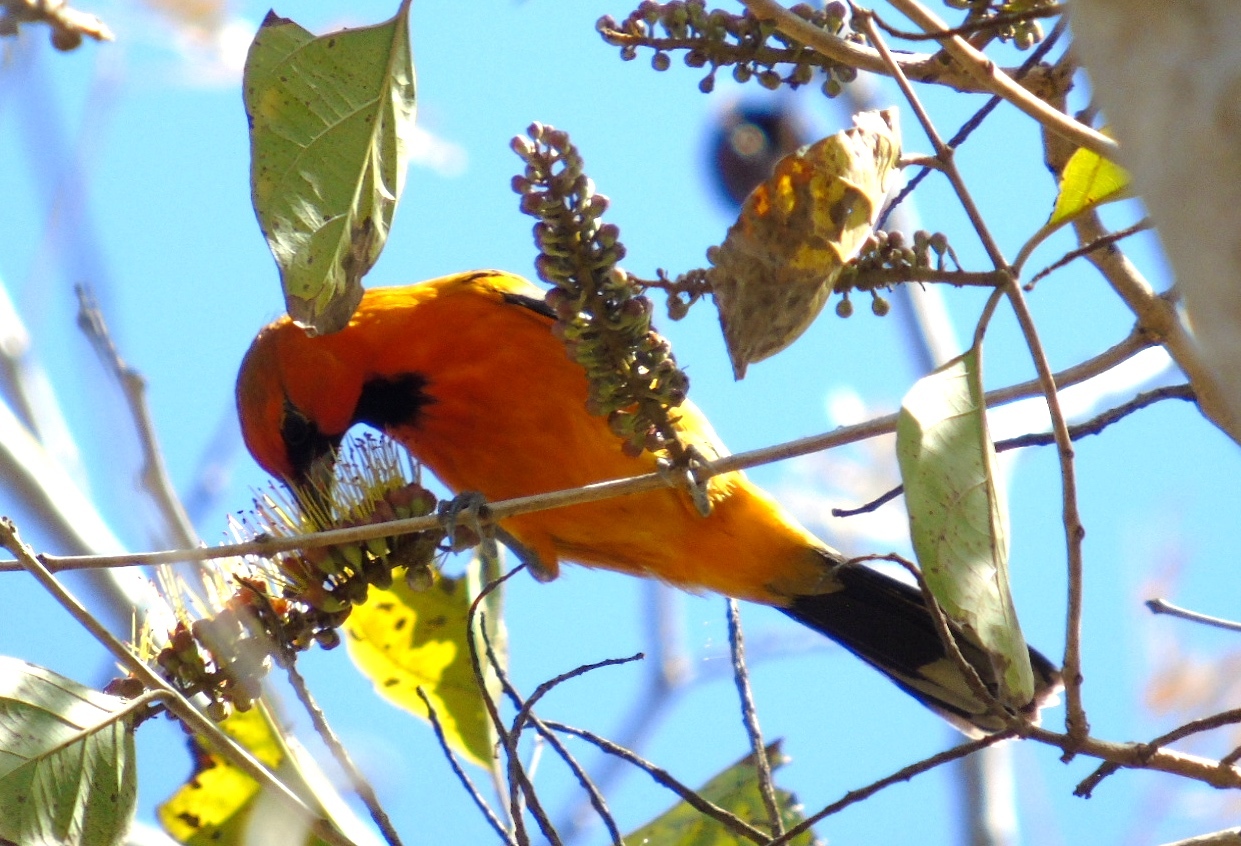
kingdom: Animalia
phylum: Chordata
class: Aves
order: Passeriformes
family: Icteridae
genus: Icterus
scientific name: Icterus pustulatus
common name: Streak-backed oriole
